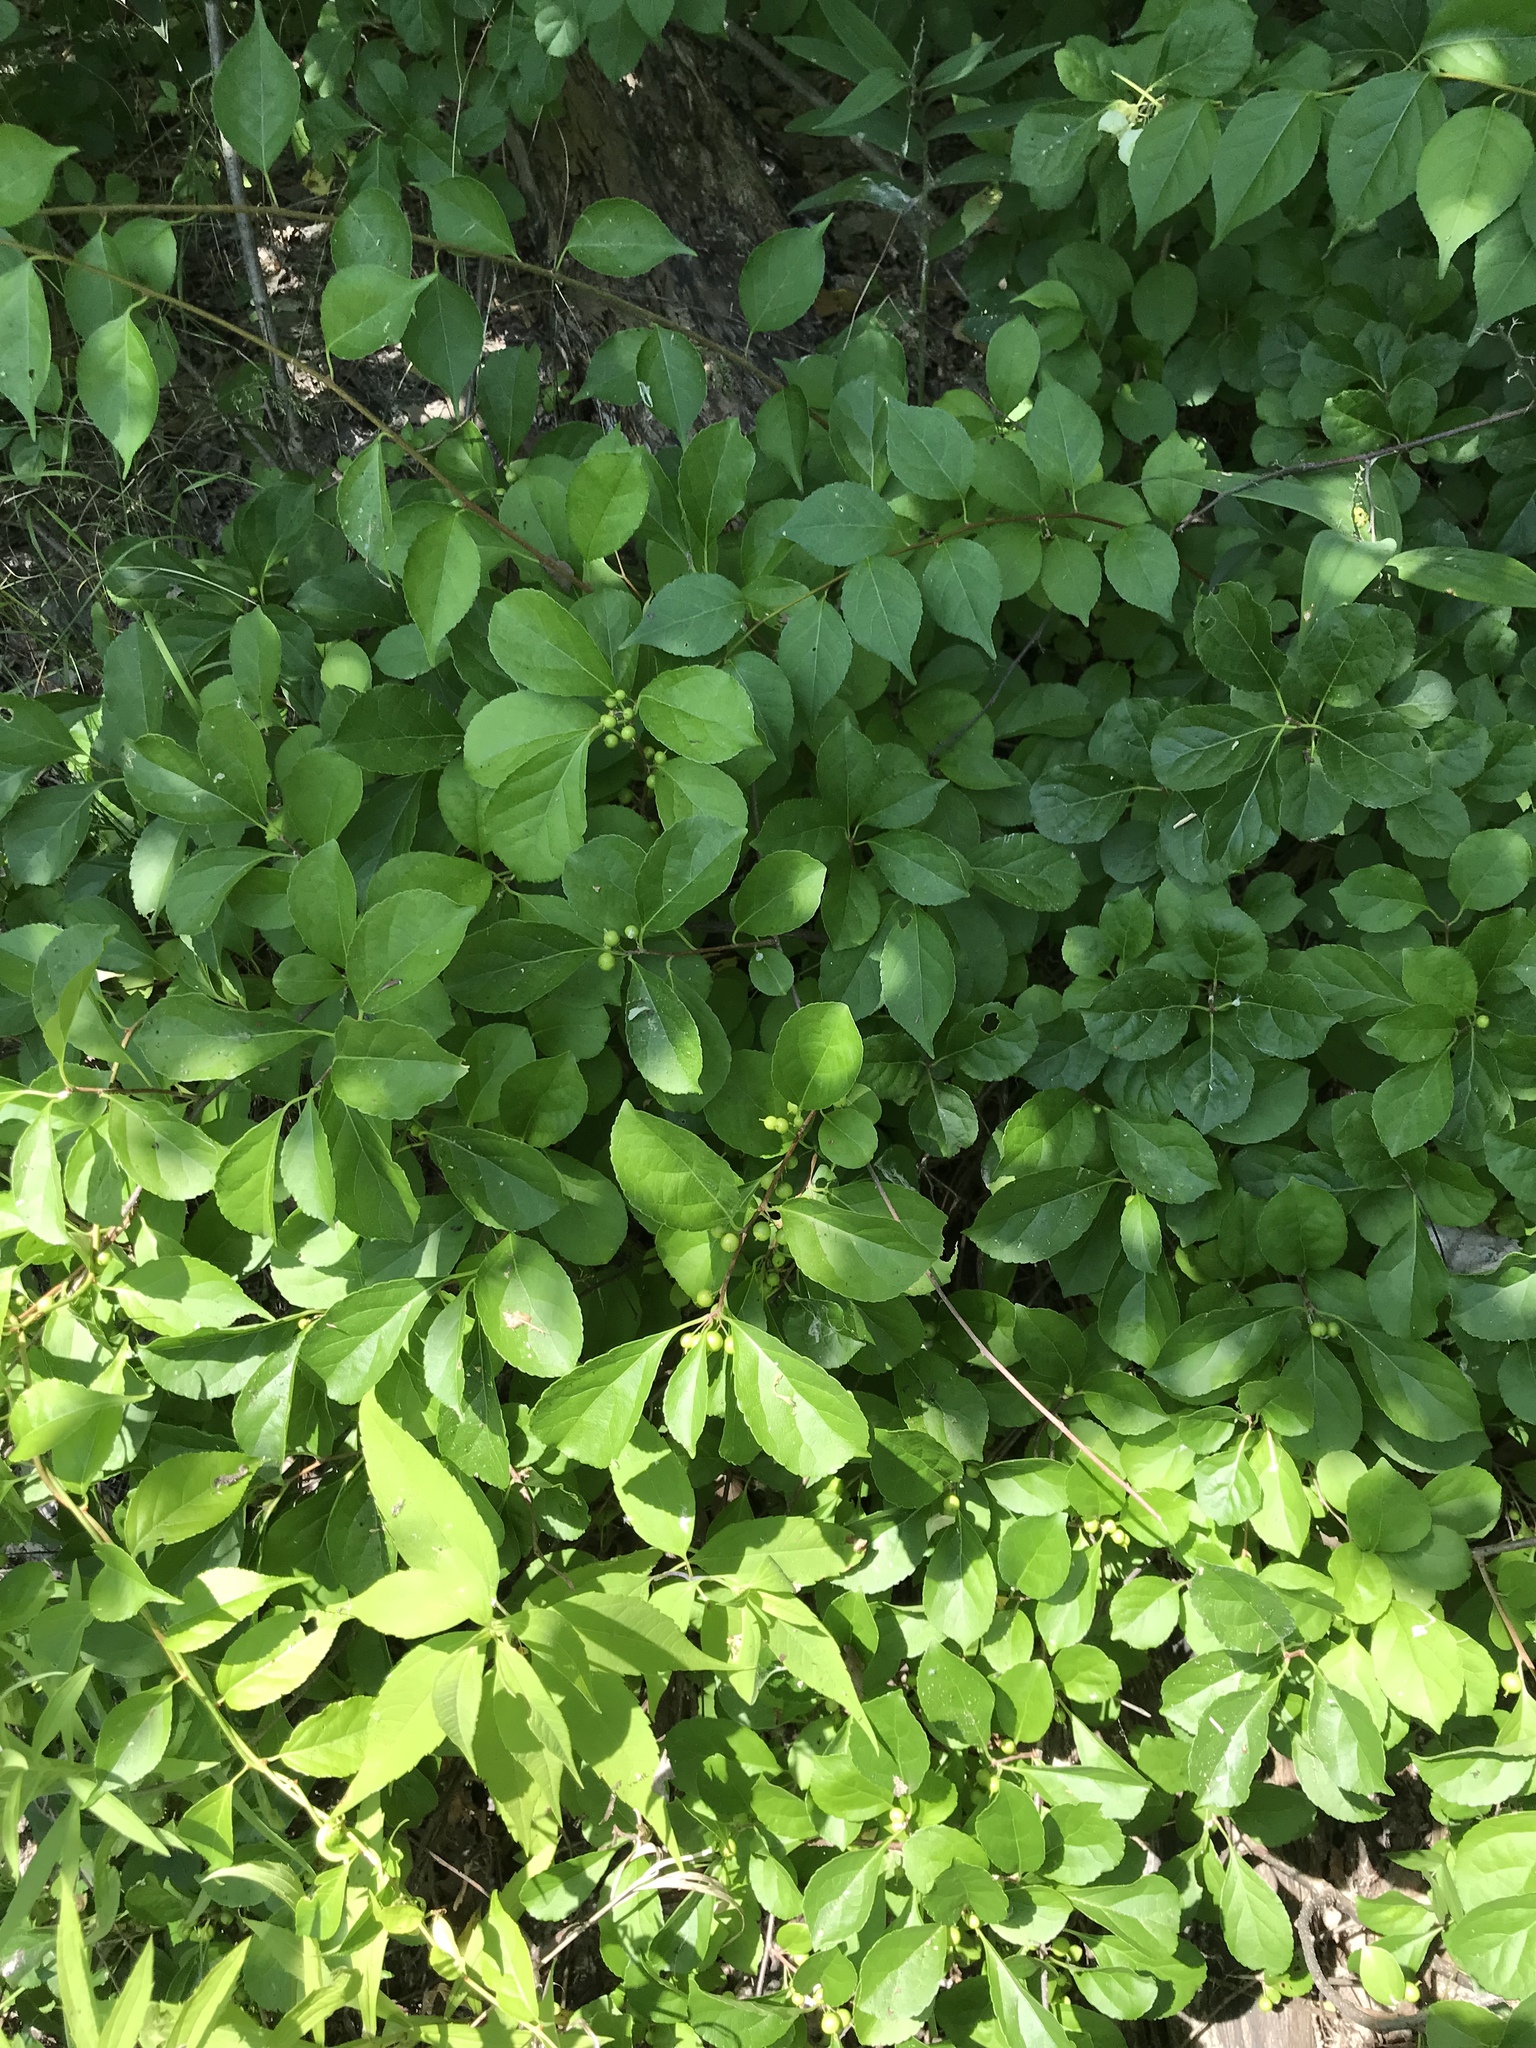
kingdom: Plantae
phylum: Tracheophyta
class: Magnoliopsida
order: Celastrales
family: Celastraceae
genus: Celastrus
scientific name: Celastrus orbiculatus
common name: Oriental bittersweet
